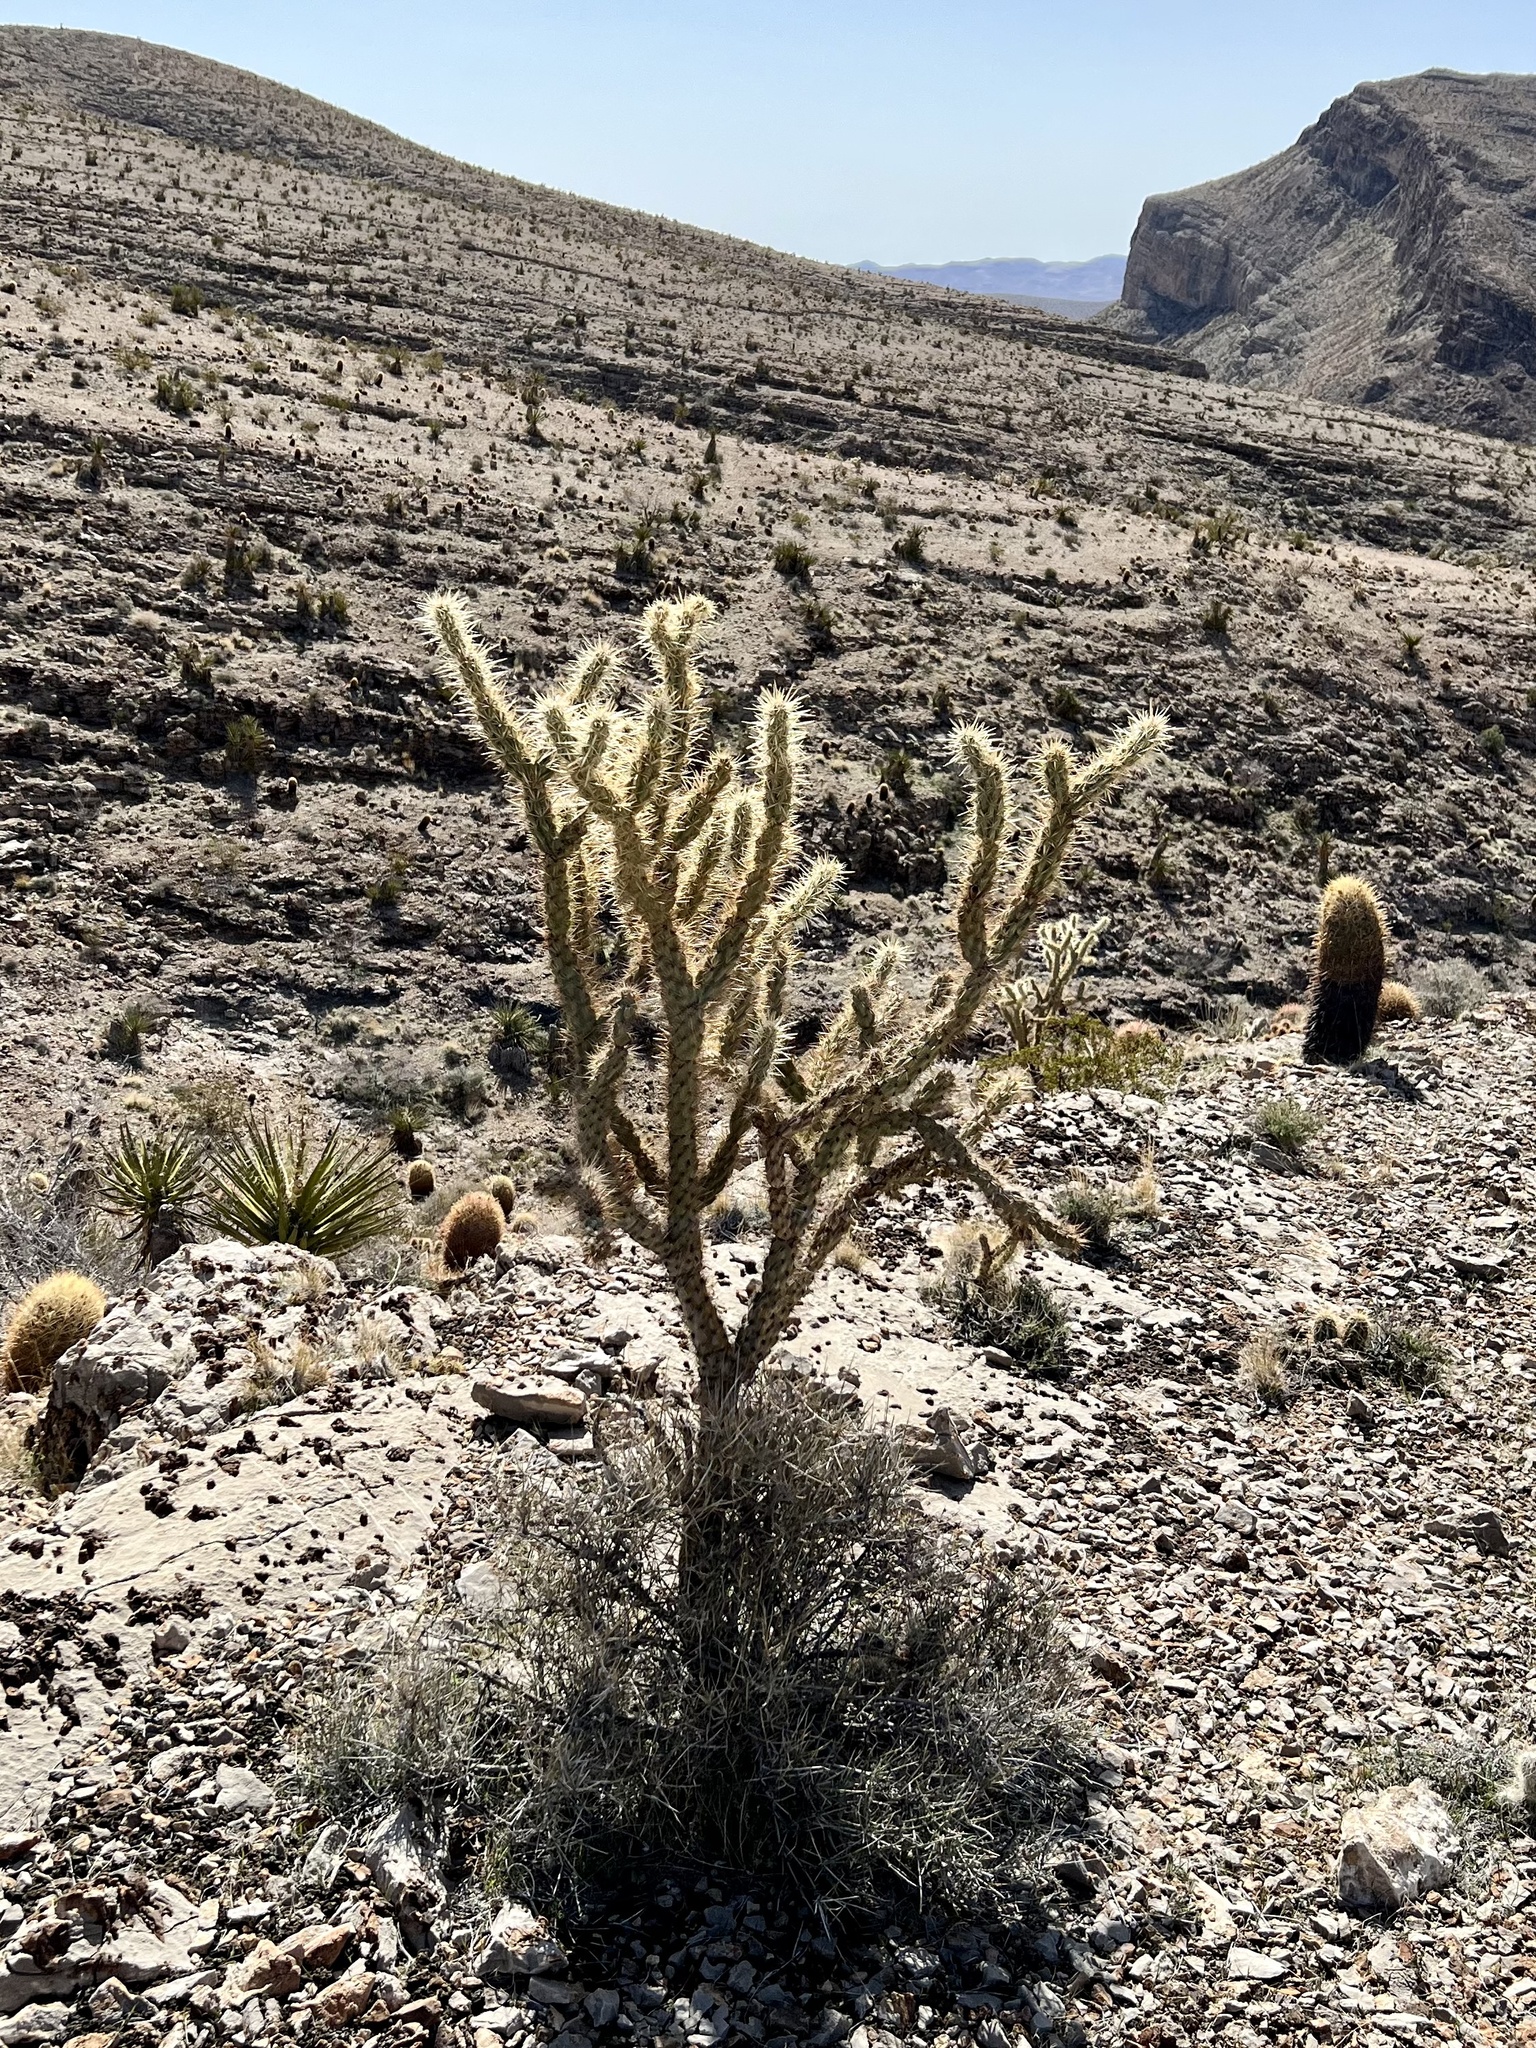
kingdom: Plantae
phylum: Tracheophyta
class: Magnoliopsida
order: Caryophyllales
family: Cactaceae
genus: Cylindropuntia
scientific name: Cylindropuntia acanthocarpa
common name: Buckhorn cholla
